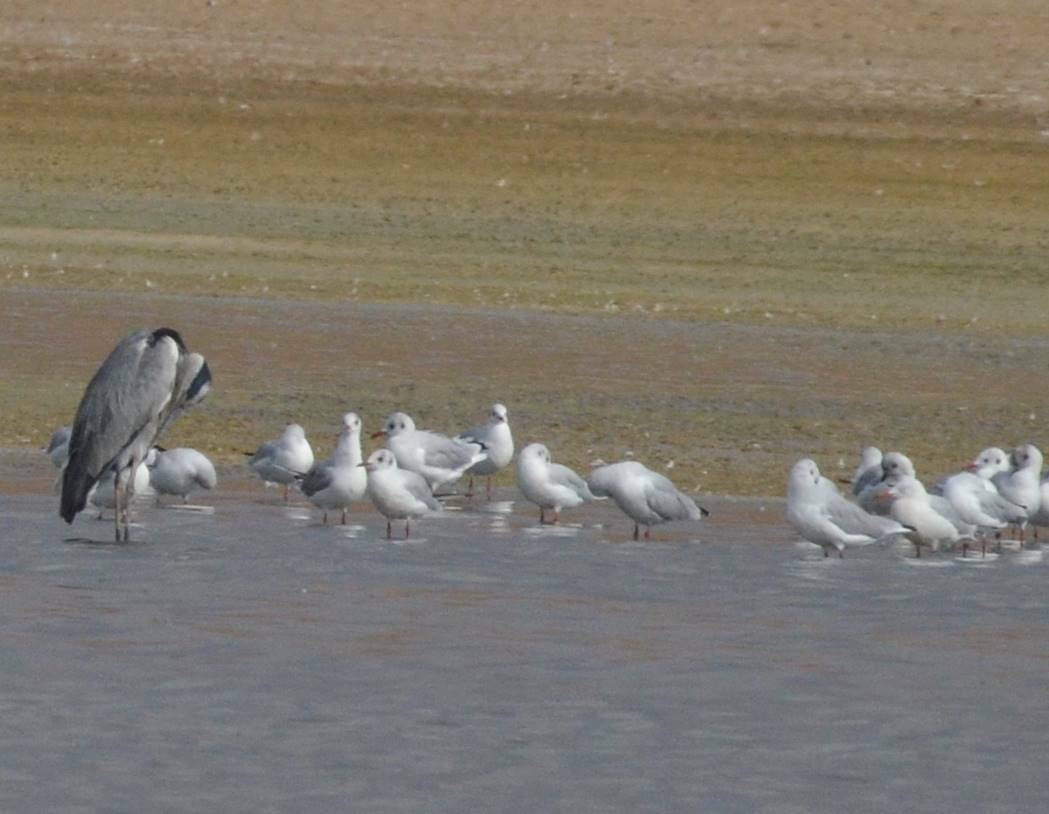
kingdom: Animalia
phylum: Chordata
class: Aves
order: Charadriiformes
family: Laridae
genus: Chroicocephalus
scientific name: Chroicocephalus ridibundus
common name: Black-headed gull
